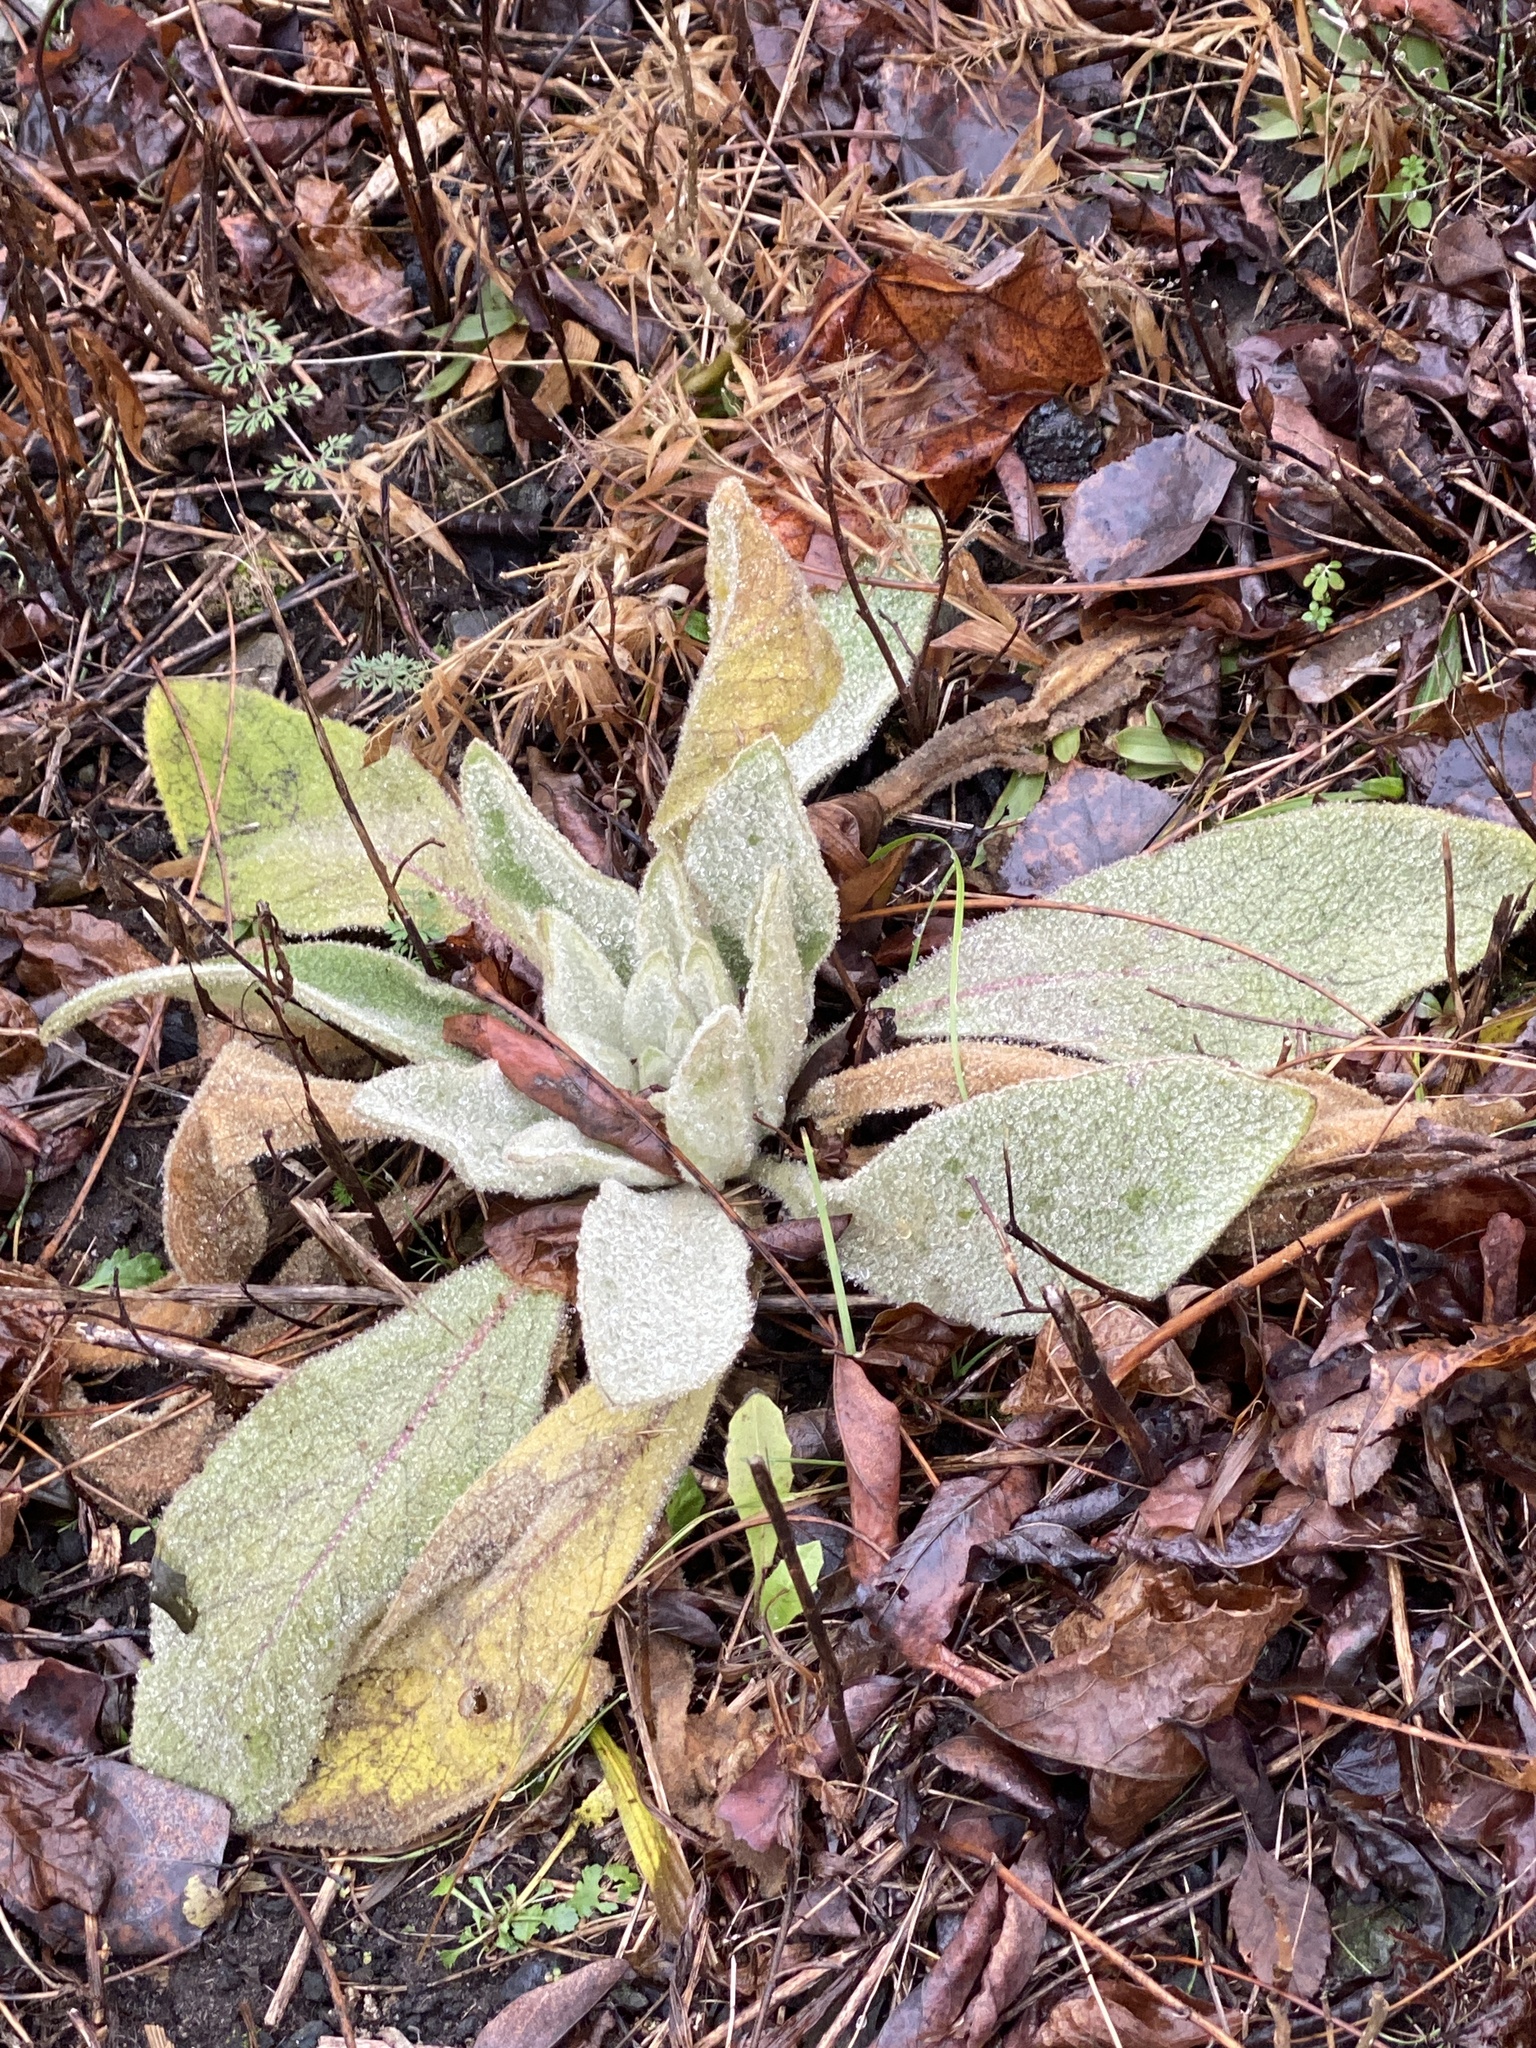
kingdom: Plantae
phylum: Tracheophyta
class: Magnoliopsida
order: Lamiales
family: Scrophulariaceae
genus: Verbascum
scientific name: Verbascum thapsus
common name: Common mullein
